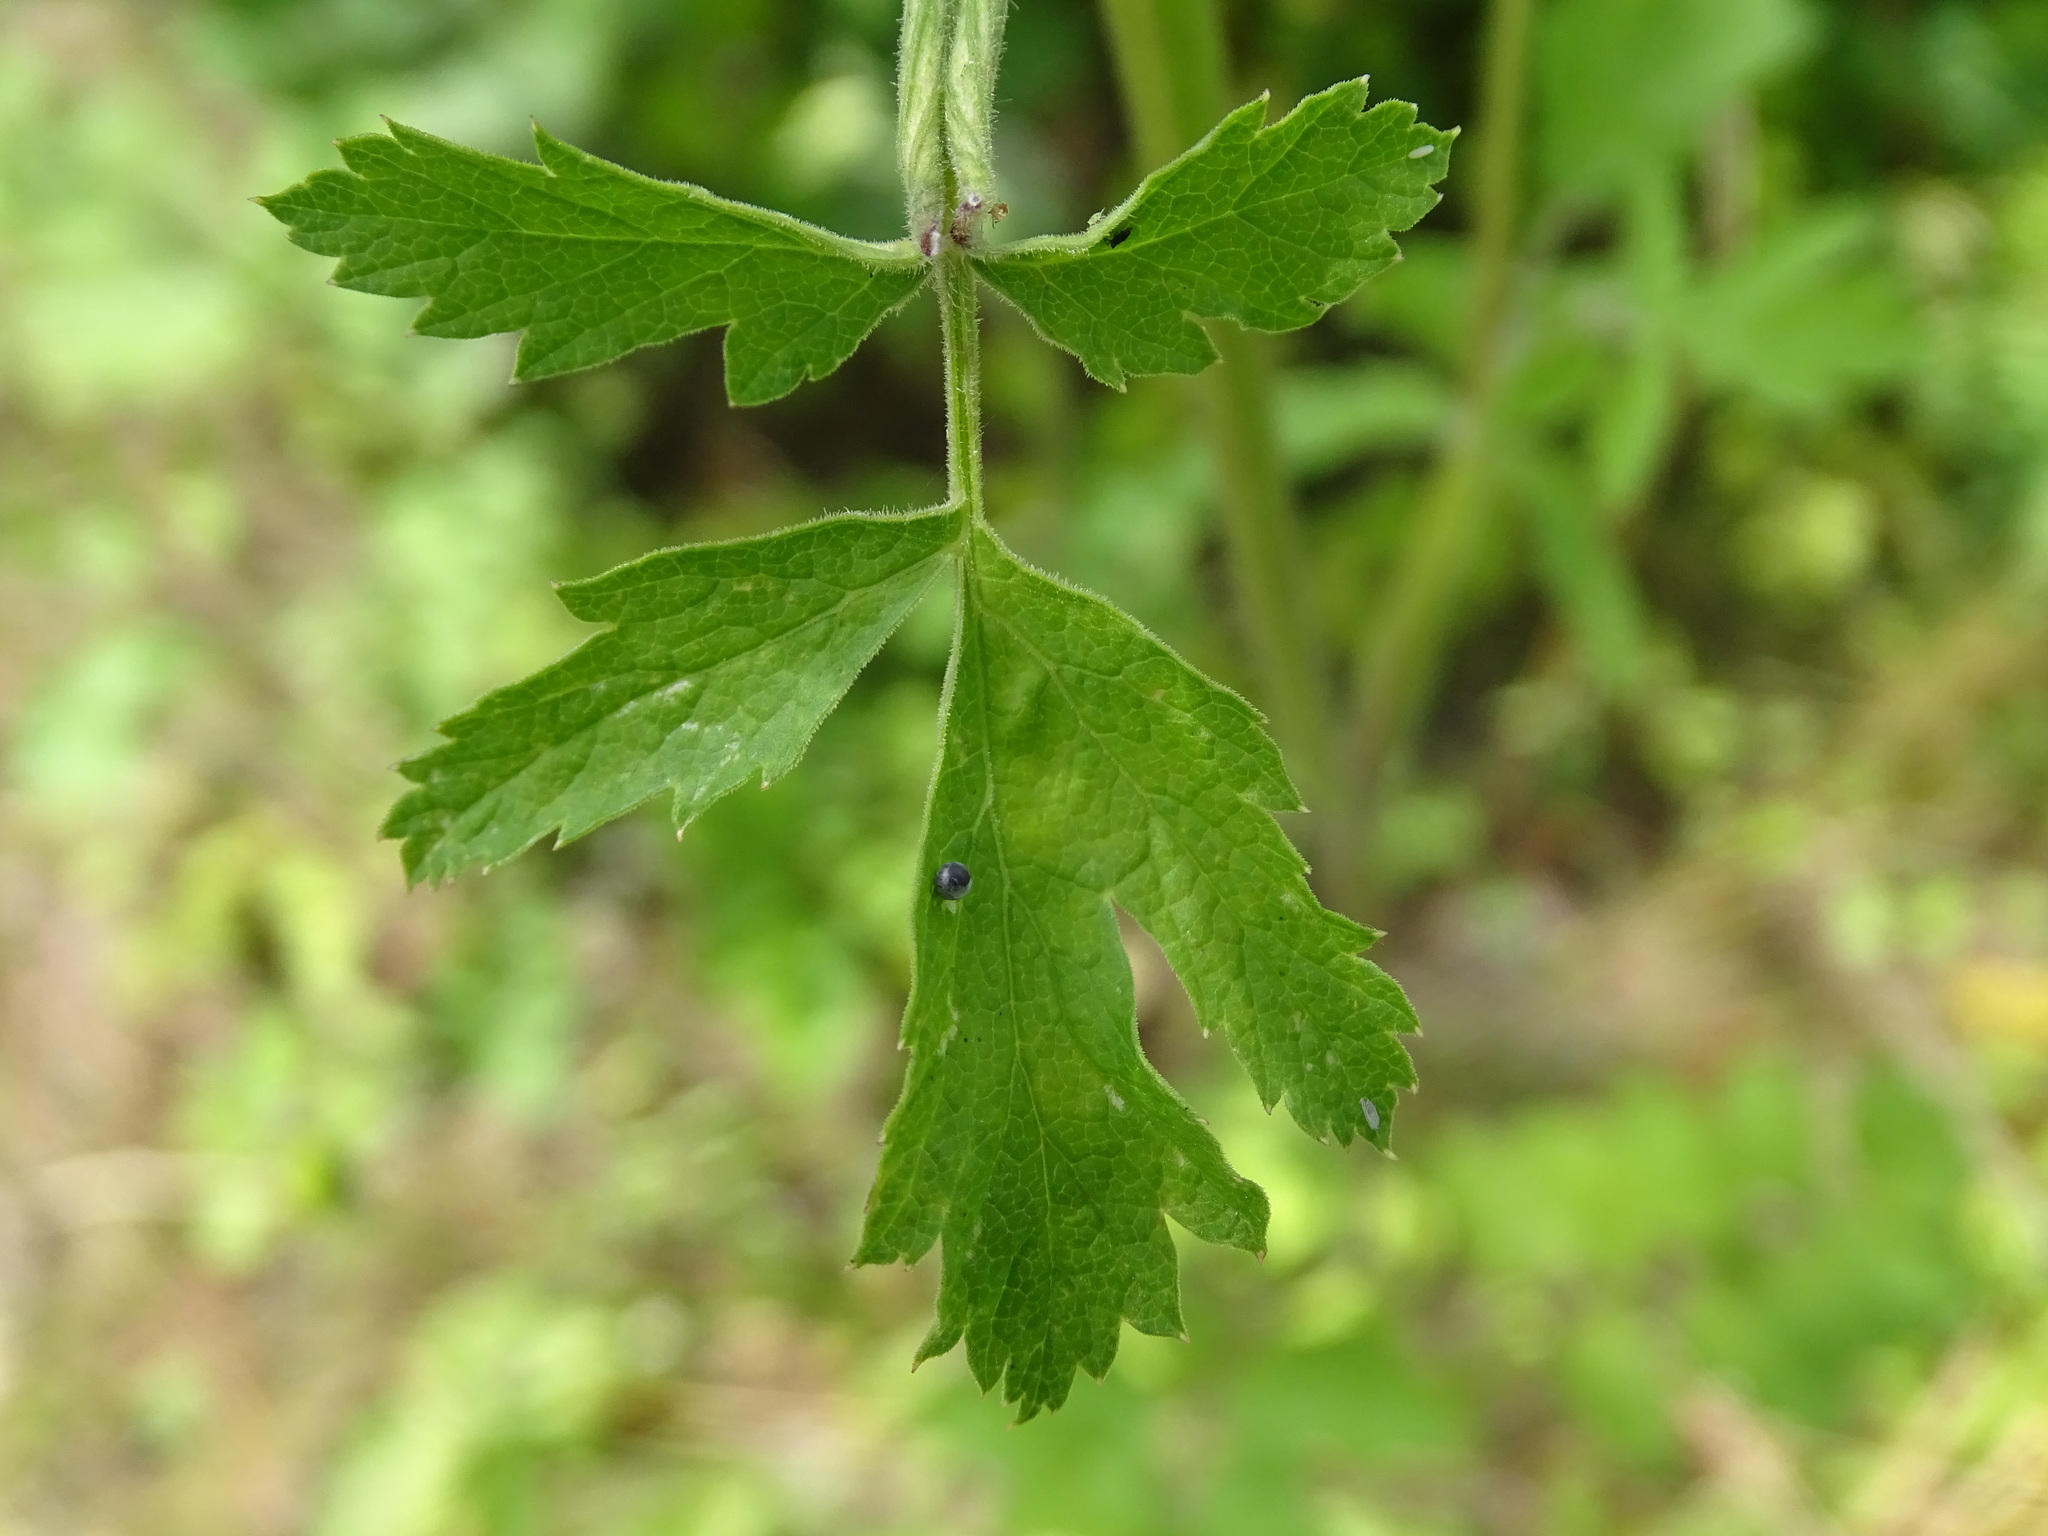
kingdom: Animalia
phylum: Arthropoda
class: Insecta
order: Lepidoptera
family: Papilionidae
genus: Papilio
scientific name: Papilio machaon
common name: Swallowtail
